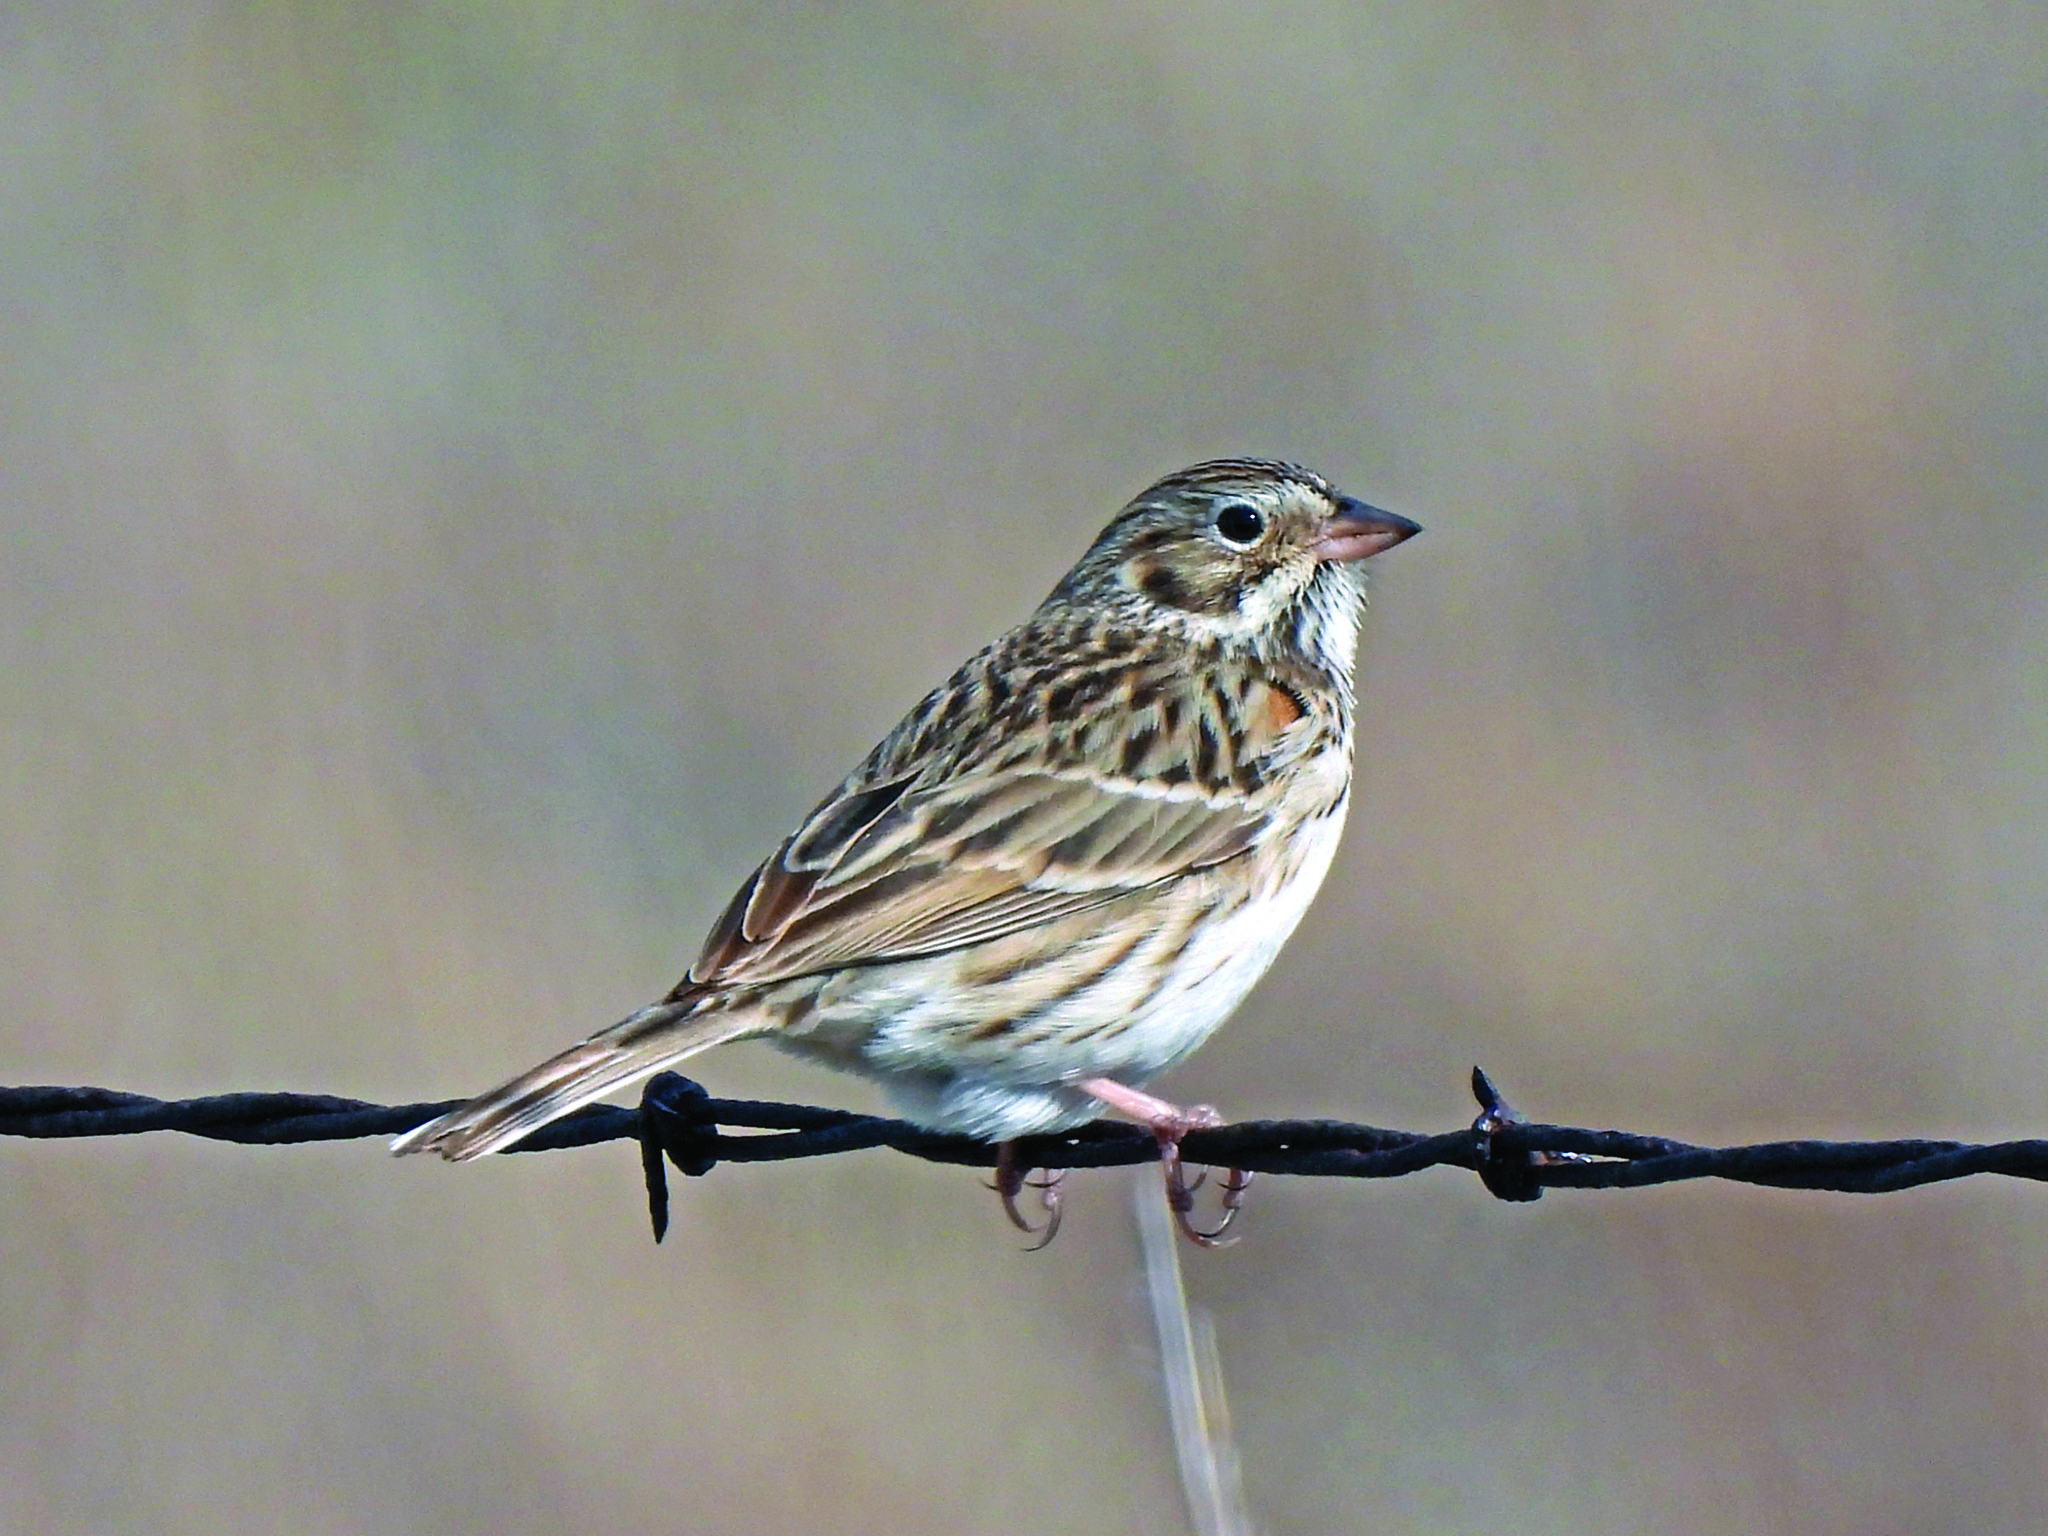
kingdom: Animalia
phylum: Chordata
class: Aves
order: Passeriformes
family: Passerellidae
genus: Pooecetes
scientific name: Pooecetes gramineus
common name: Vesper sparrow
